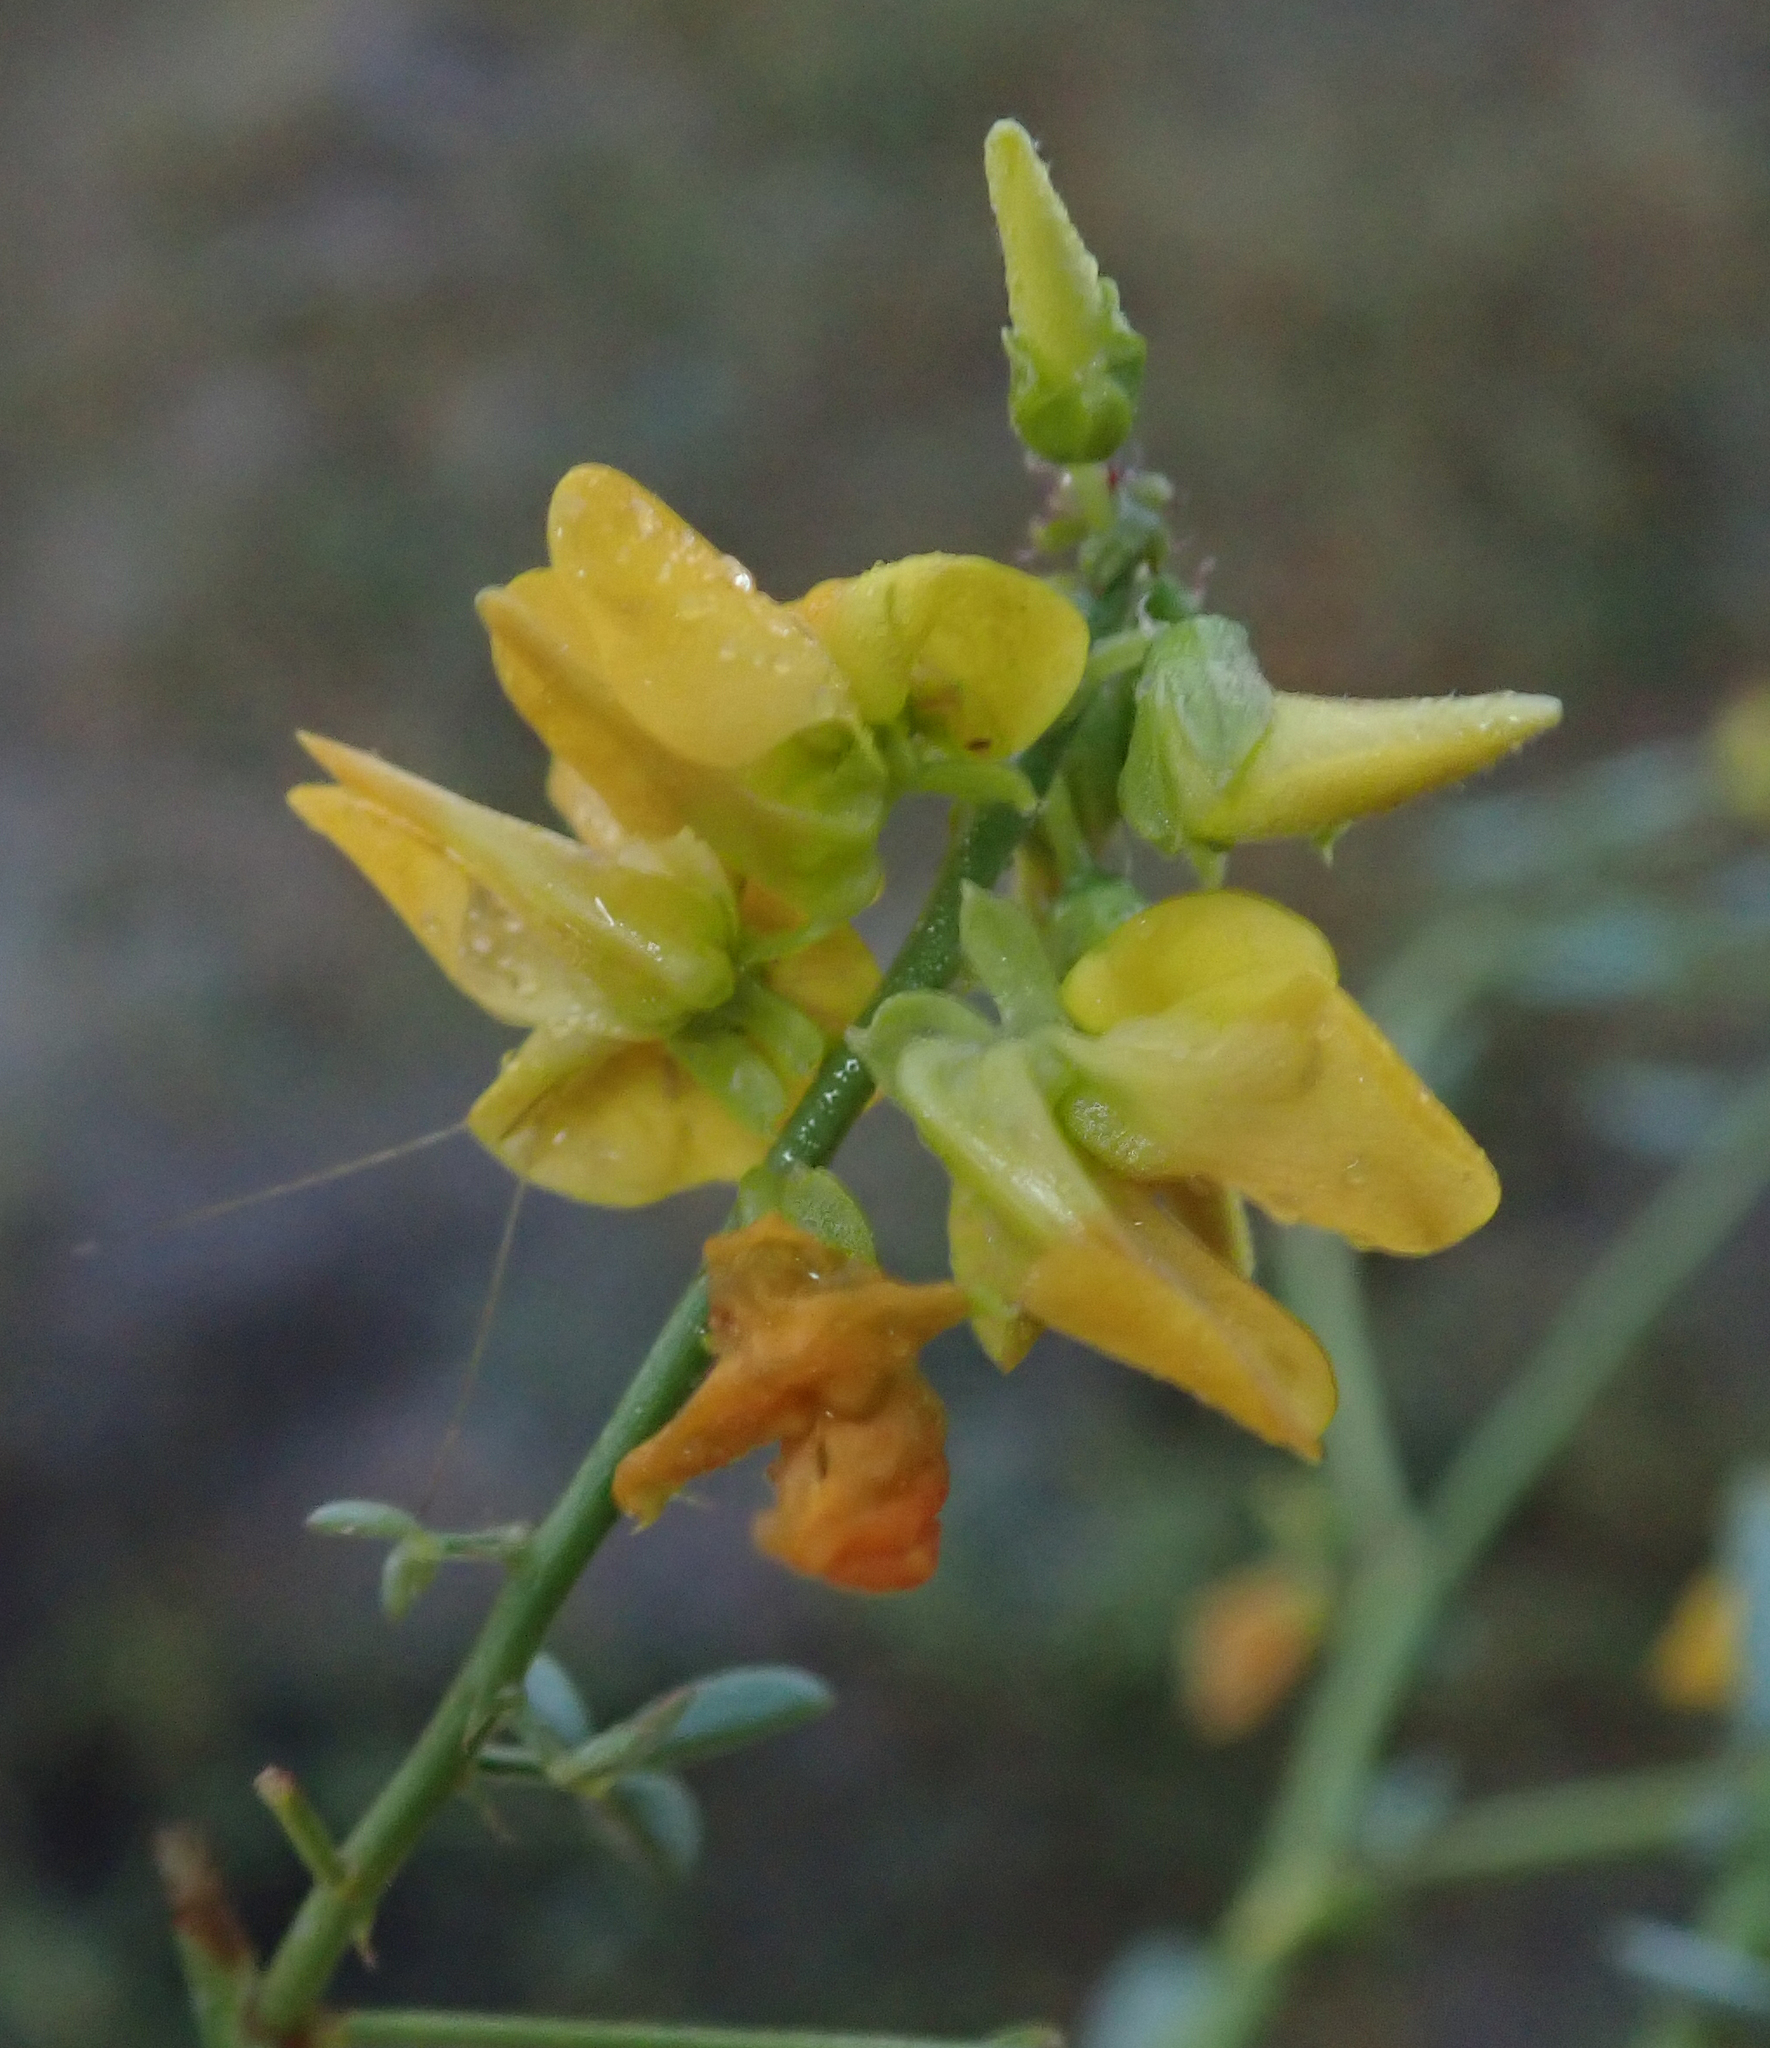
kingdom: Plantae
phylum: Tracheophyta
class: Magnoliopsida
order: Fabales
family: Fabaceae
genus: Crotalaria
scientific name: Crotalaria platysepala
